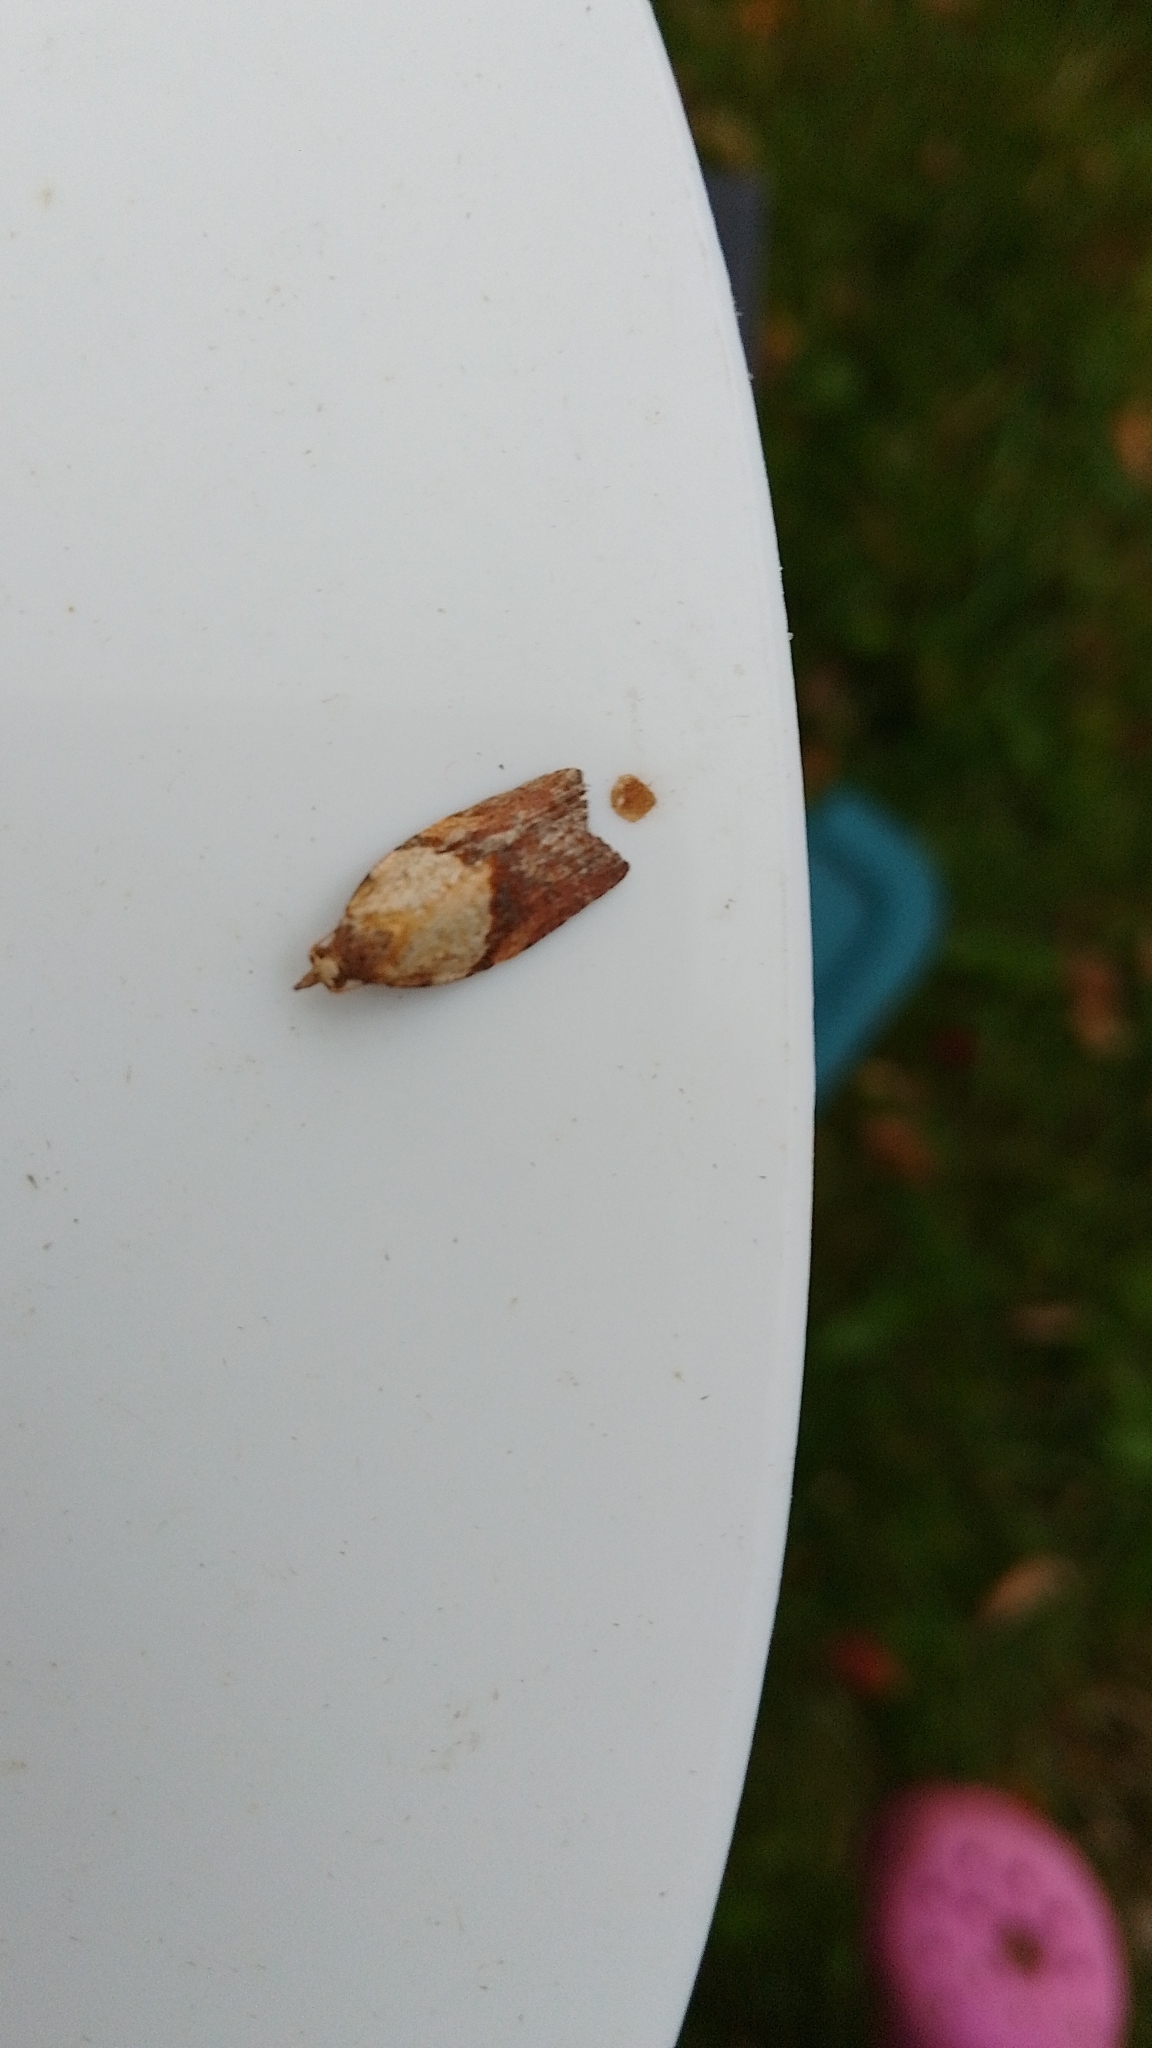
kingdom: Animalia
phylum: Arthropoda
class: Insecta
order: Lepidoptera
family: Tortricidae
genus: Epiphyas
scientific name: Epiphyas postvittana
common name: Light brown apple moth
